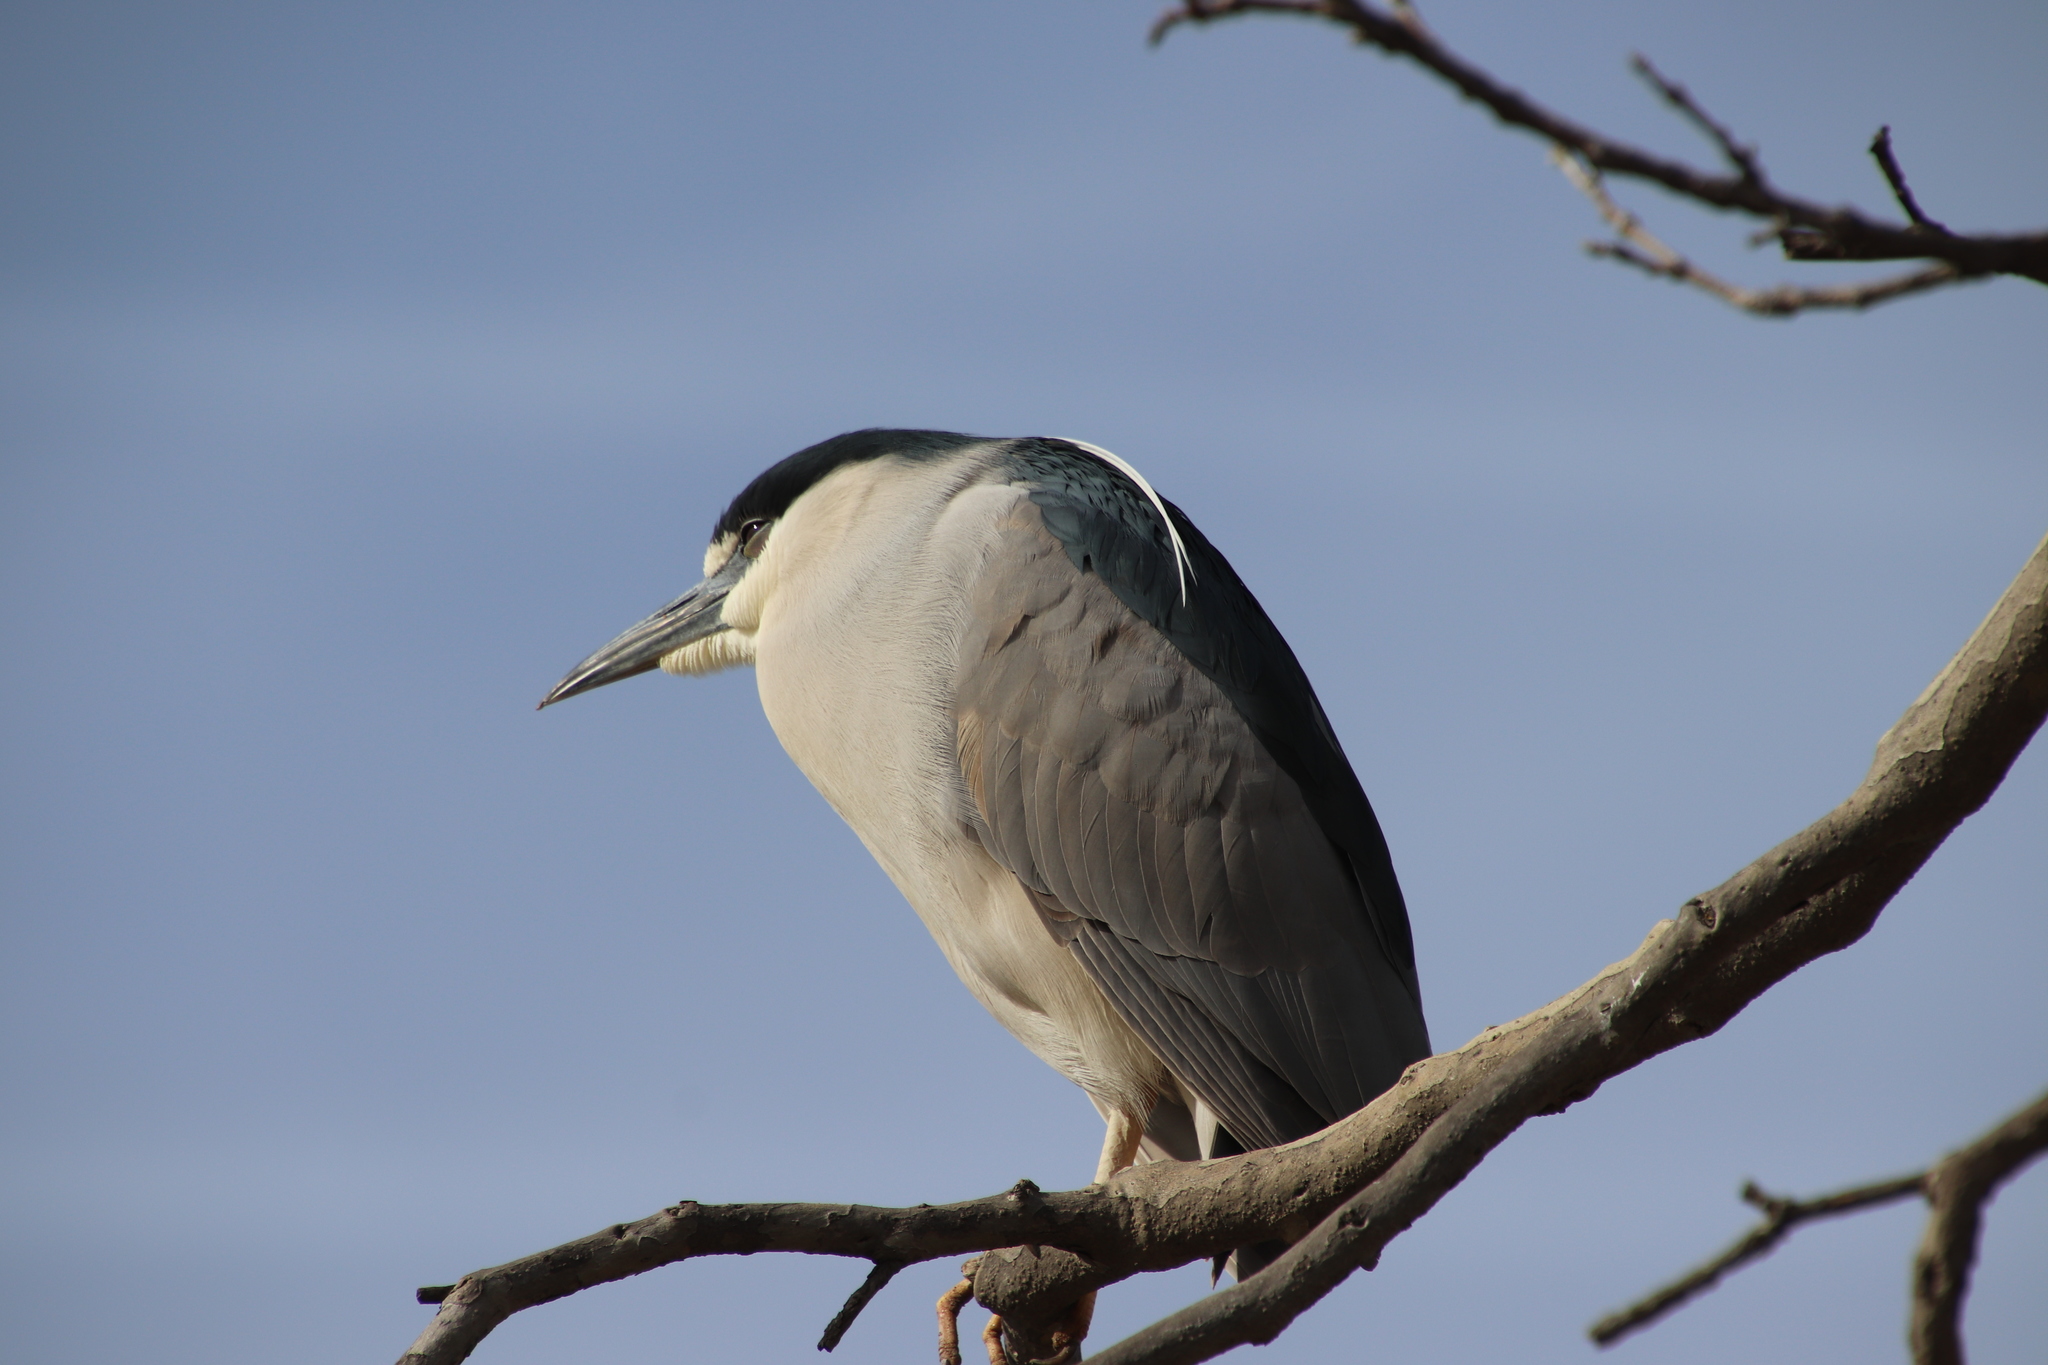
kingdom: Animalia
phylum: Chordata
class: Aves
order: Pelecaniformes
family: Ardeidae
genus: Nycticorax
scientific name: Nycticorax nycticorax
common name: Black-crowned night heron
